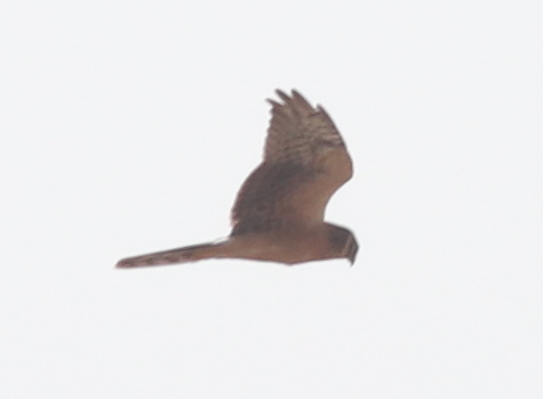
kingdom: Animalia
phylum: Chordata
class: Aves
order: Accipitriformes
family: Accipitridae
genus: Circus
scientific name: Circus macrourus
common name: Pallid harrier
